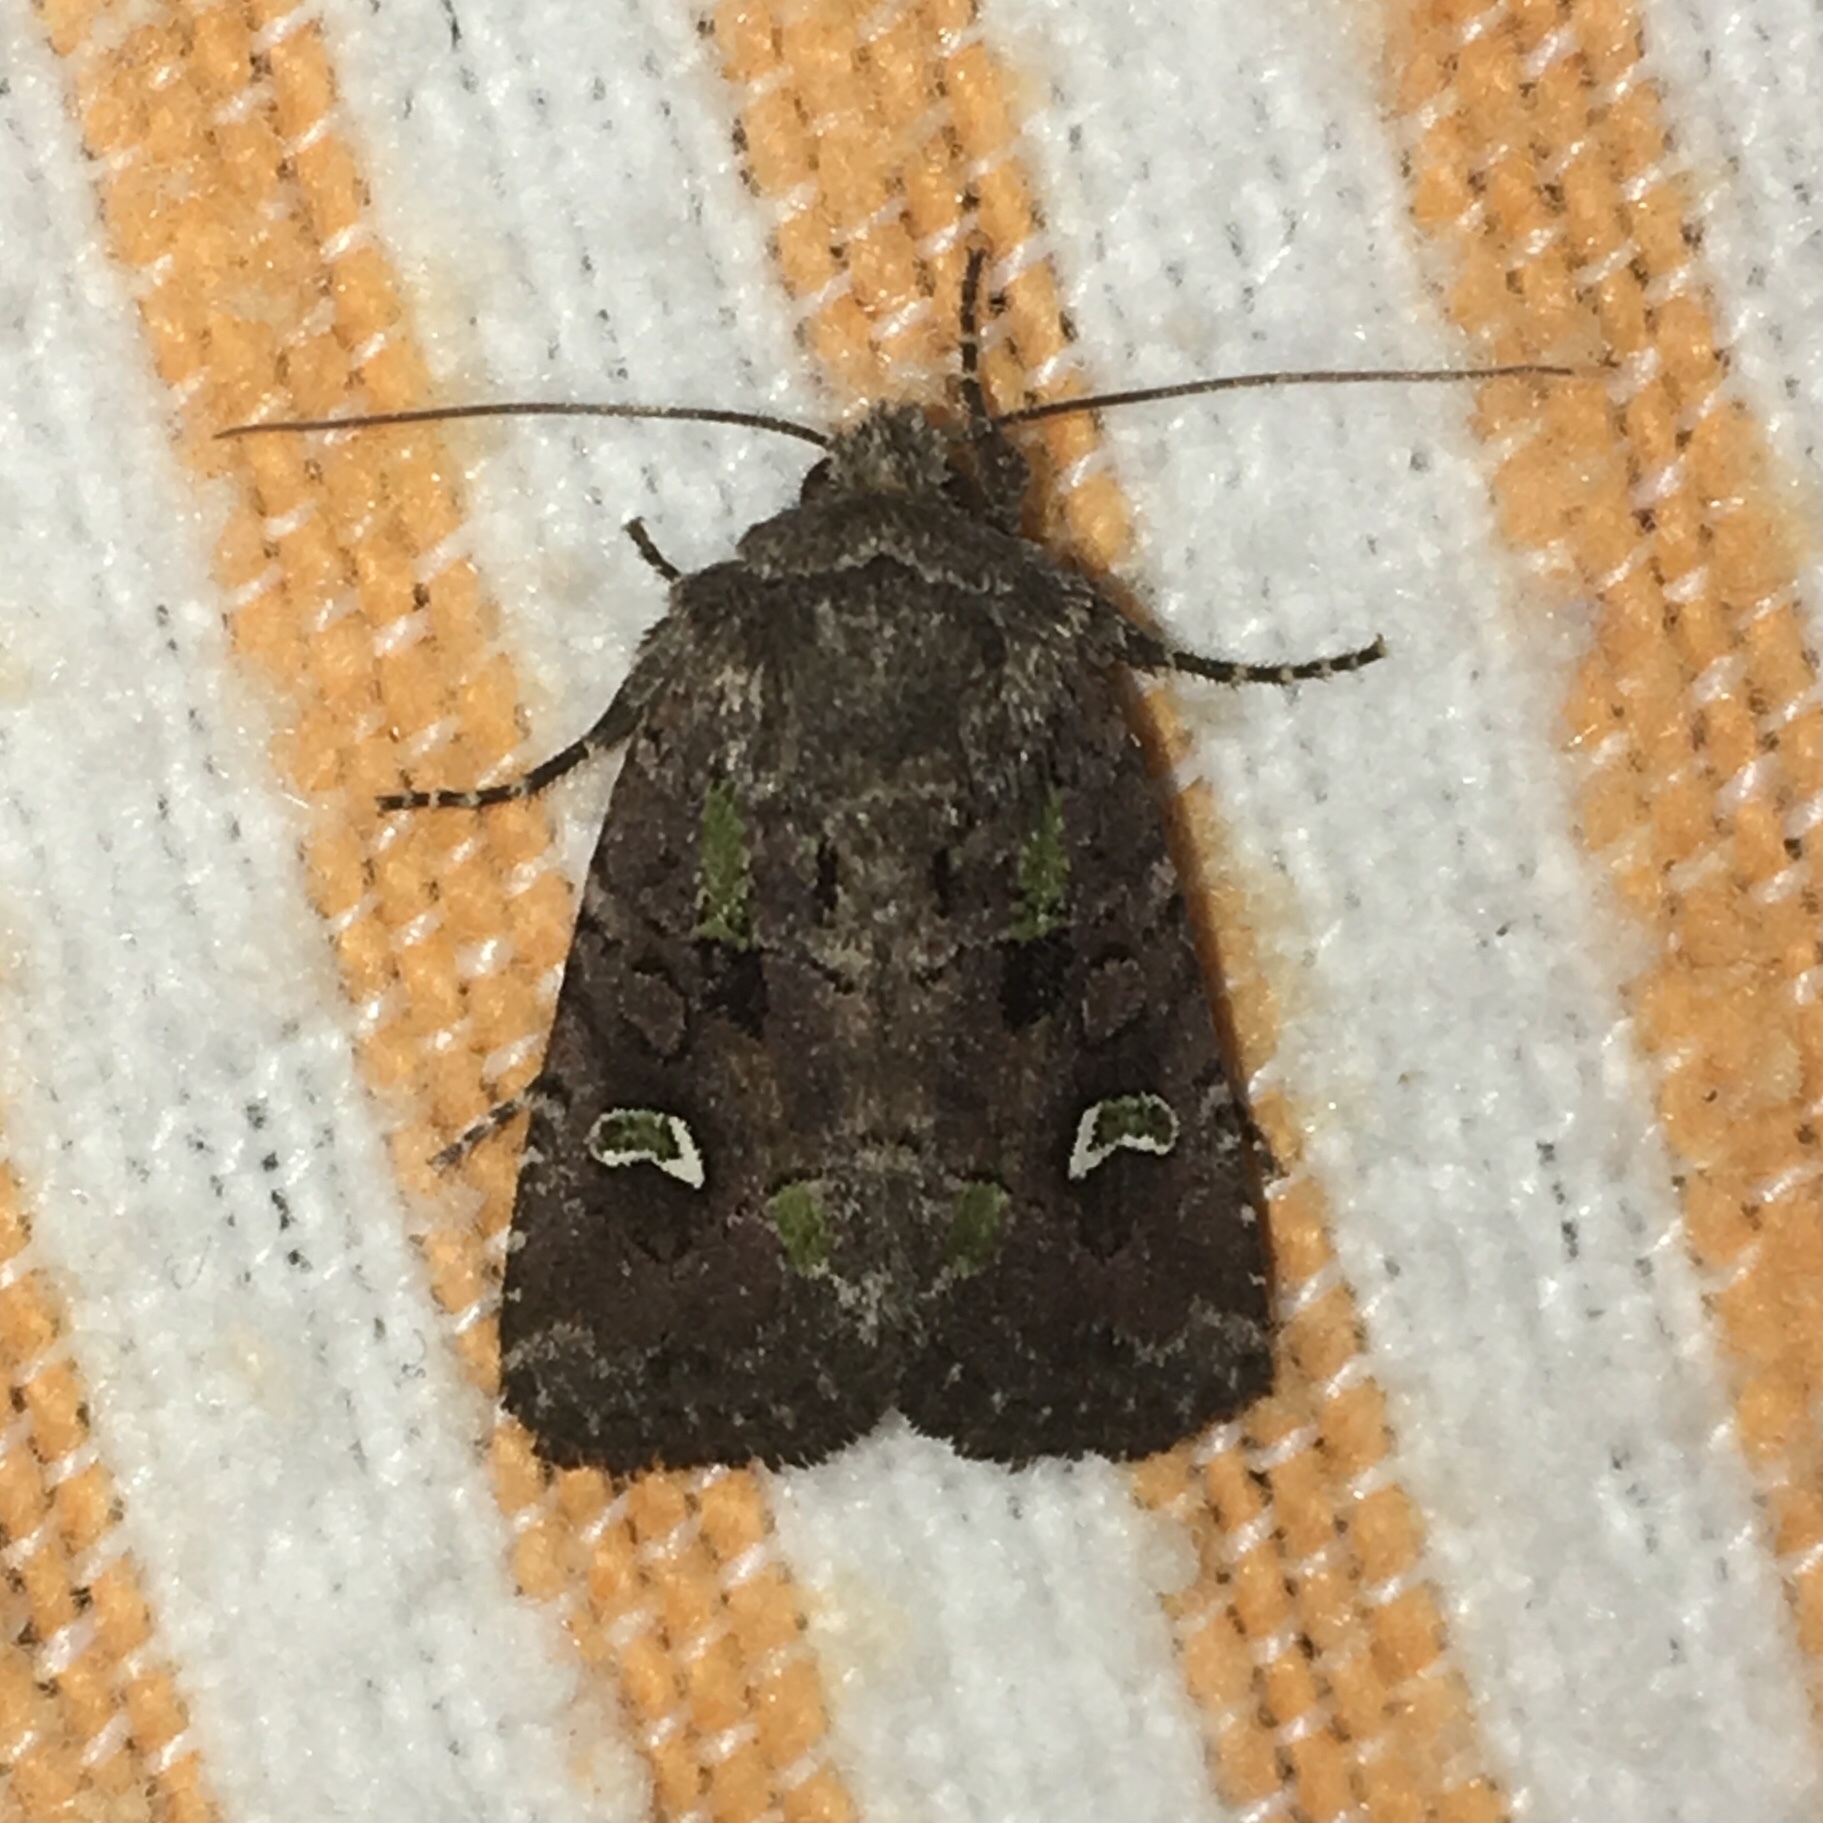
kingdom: Animalia
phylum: Arthropoda
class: Insecta
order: Lepidoptera
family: Noctuidae
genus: Lacinipolia
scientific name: Lacinipolia renigera
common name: Kidney-spotted minor
